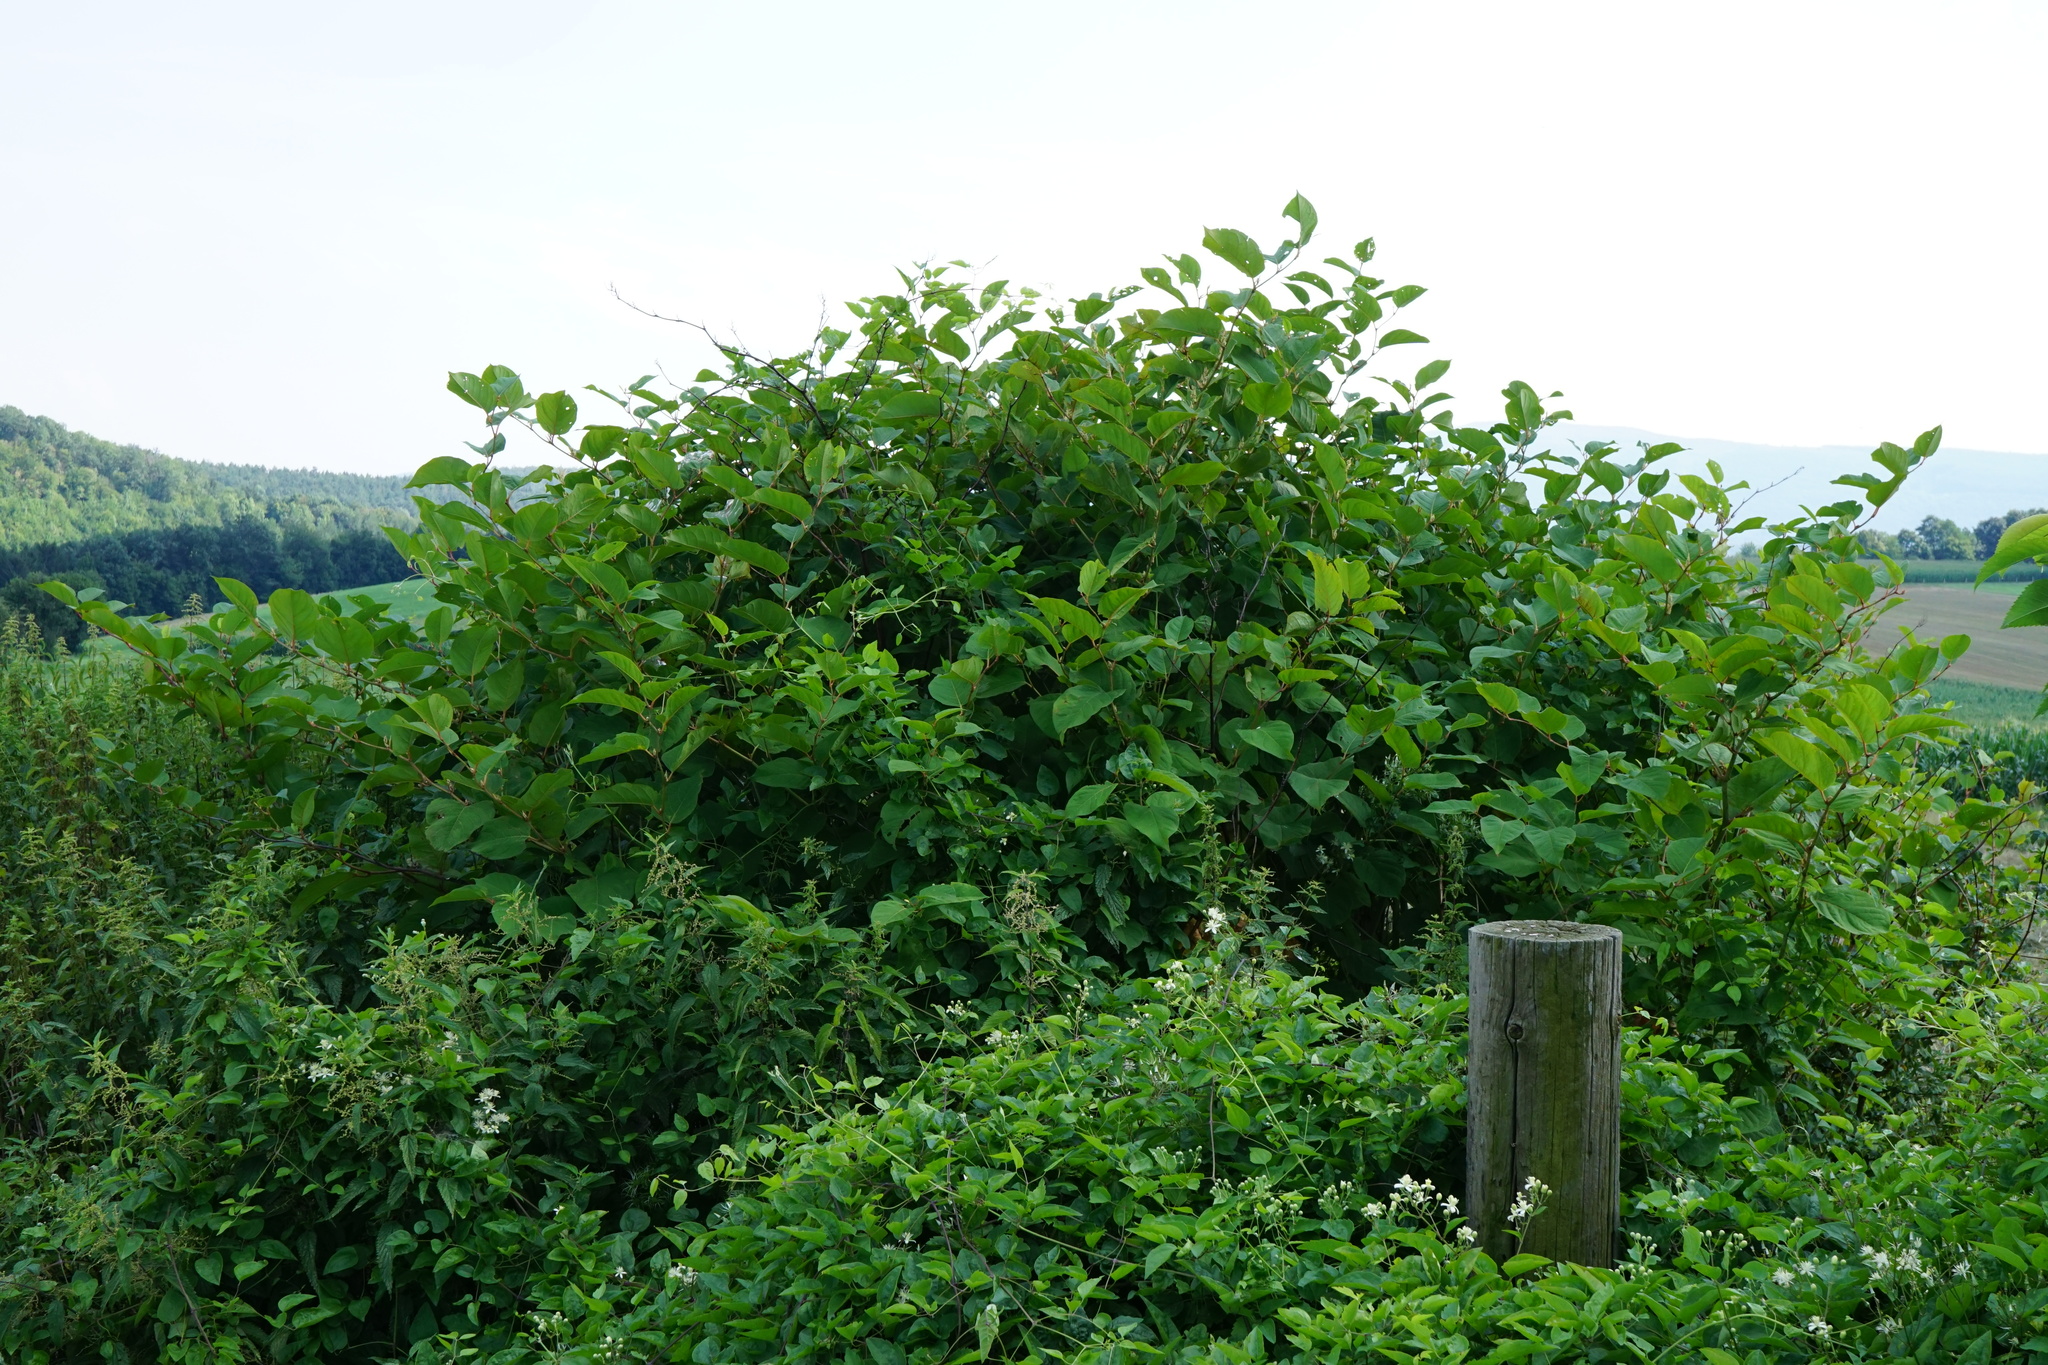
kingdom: Plantae
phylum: Tracheophyta
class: Magnoliopsida
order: Caryophyllales
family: Polygonaceae
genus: Reynoutria
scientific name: Reynoutria bohemica
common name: Bohemian knotweed
